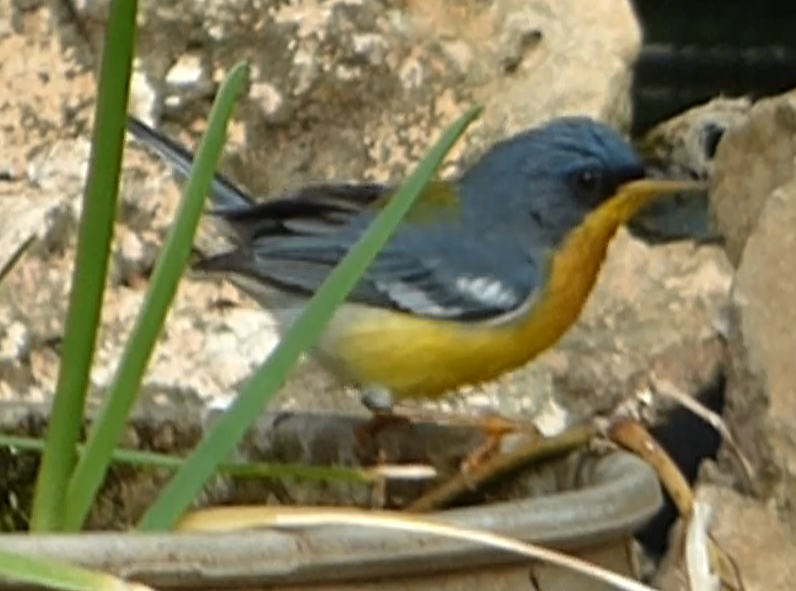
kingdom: Animalia
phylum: Chordata
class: Aves
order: Passeriformes
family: Parulidae
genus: Setophaga
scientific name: Setophaga pitiayumi
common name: Tropical parula
